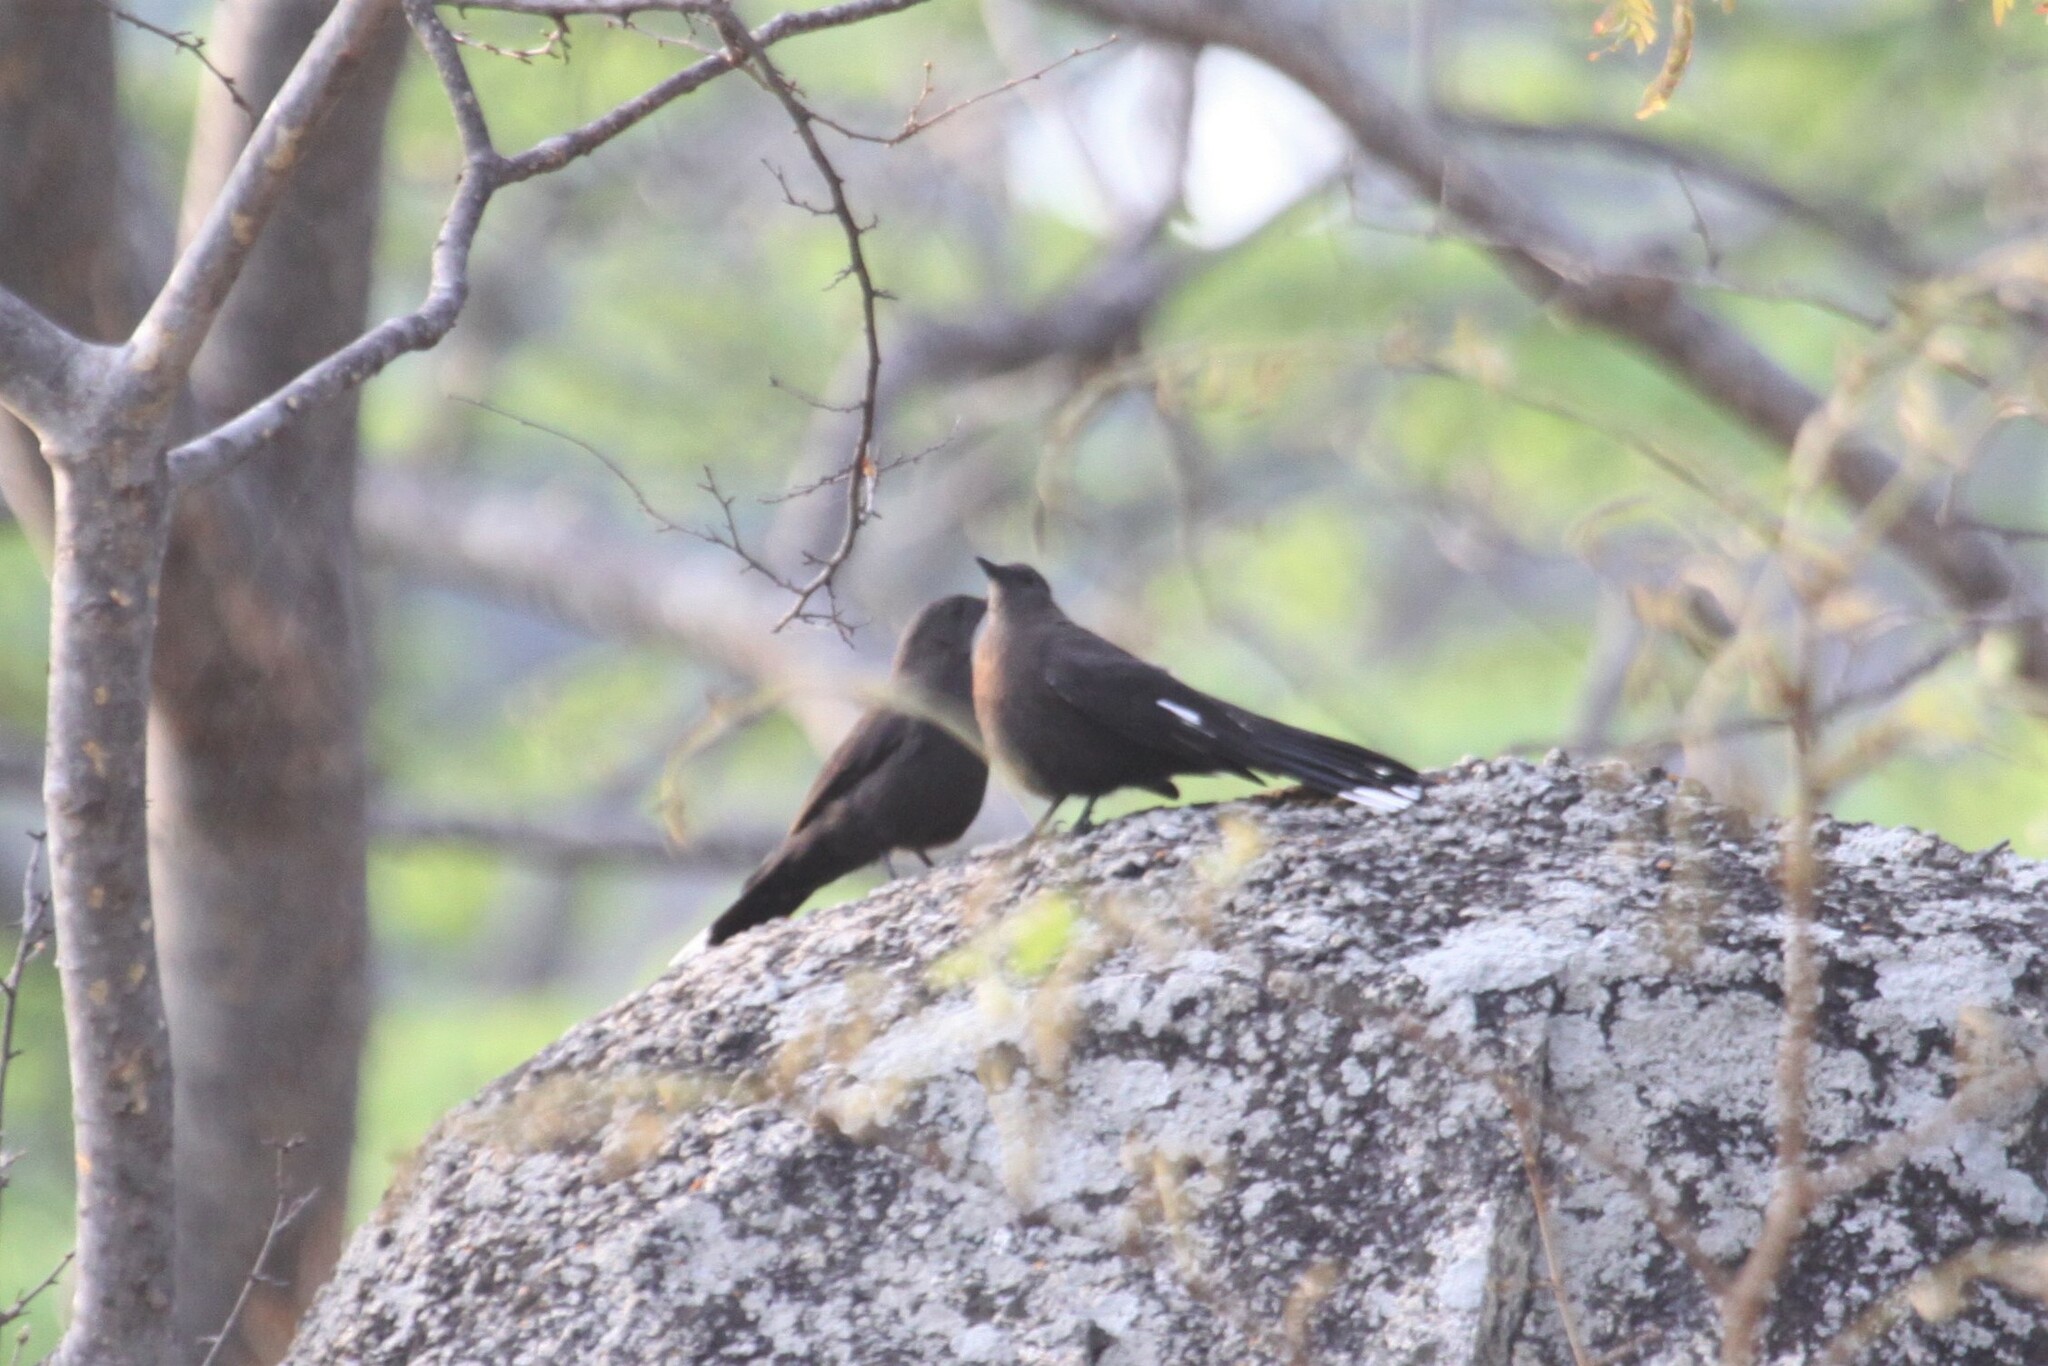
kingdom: Animalia
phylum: Chordata
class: Aves
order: Passeriformes
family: Muscicapidae
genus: Pinarornis
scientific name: Pinarornis plumosus
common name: Boulder chat
